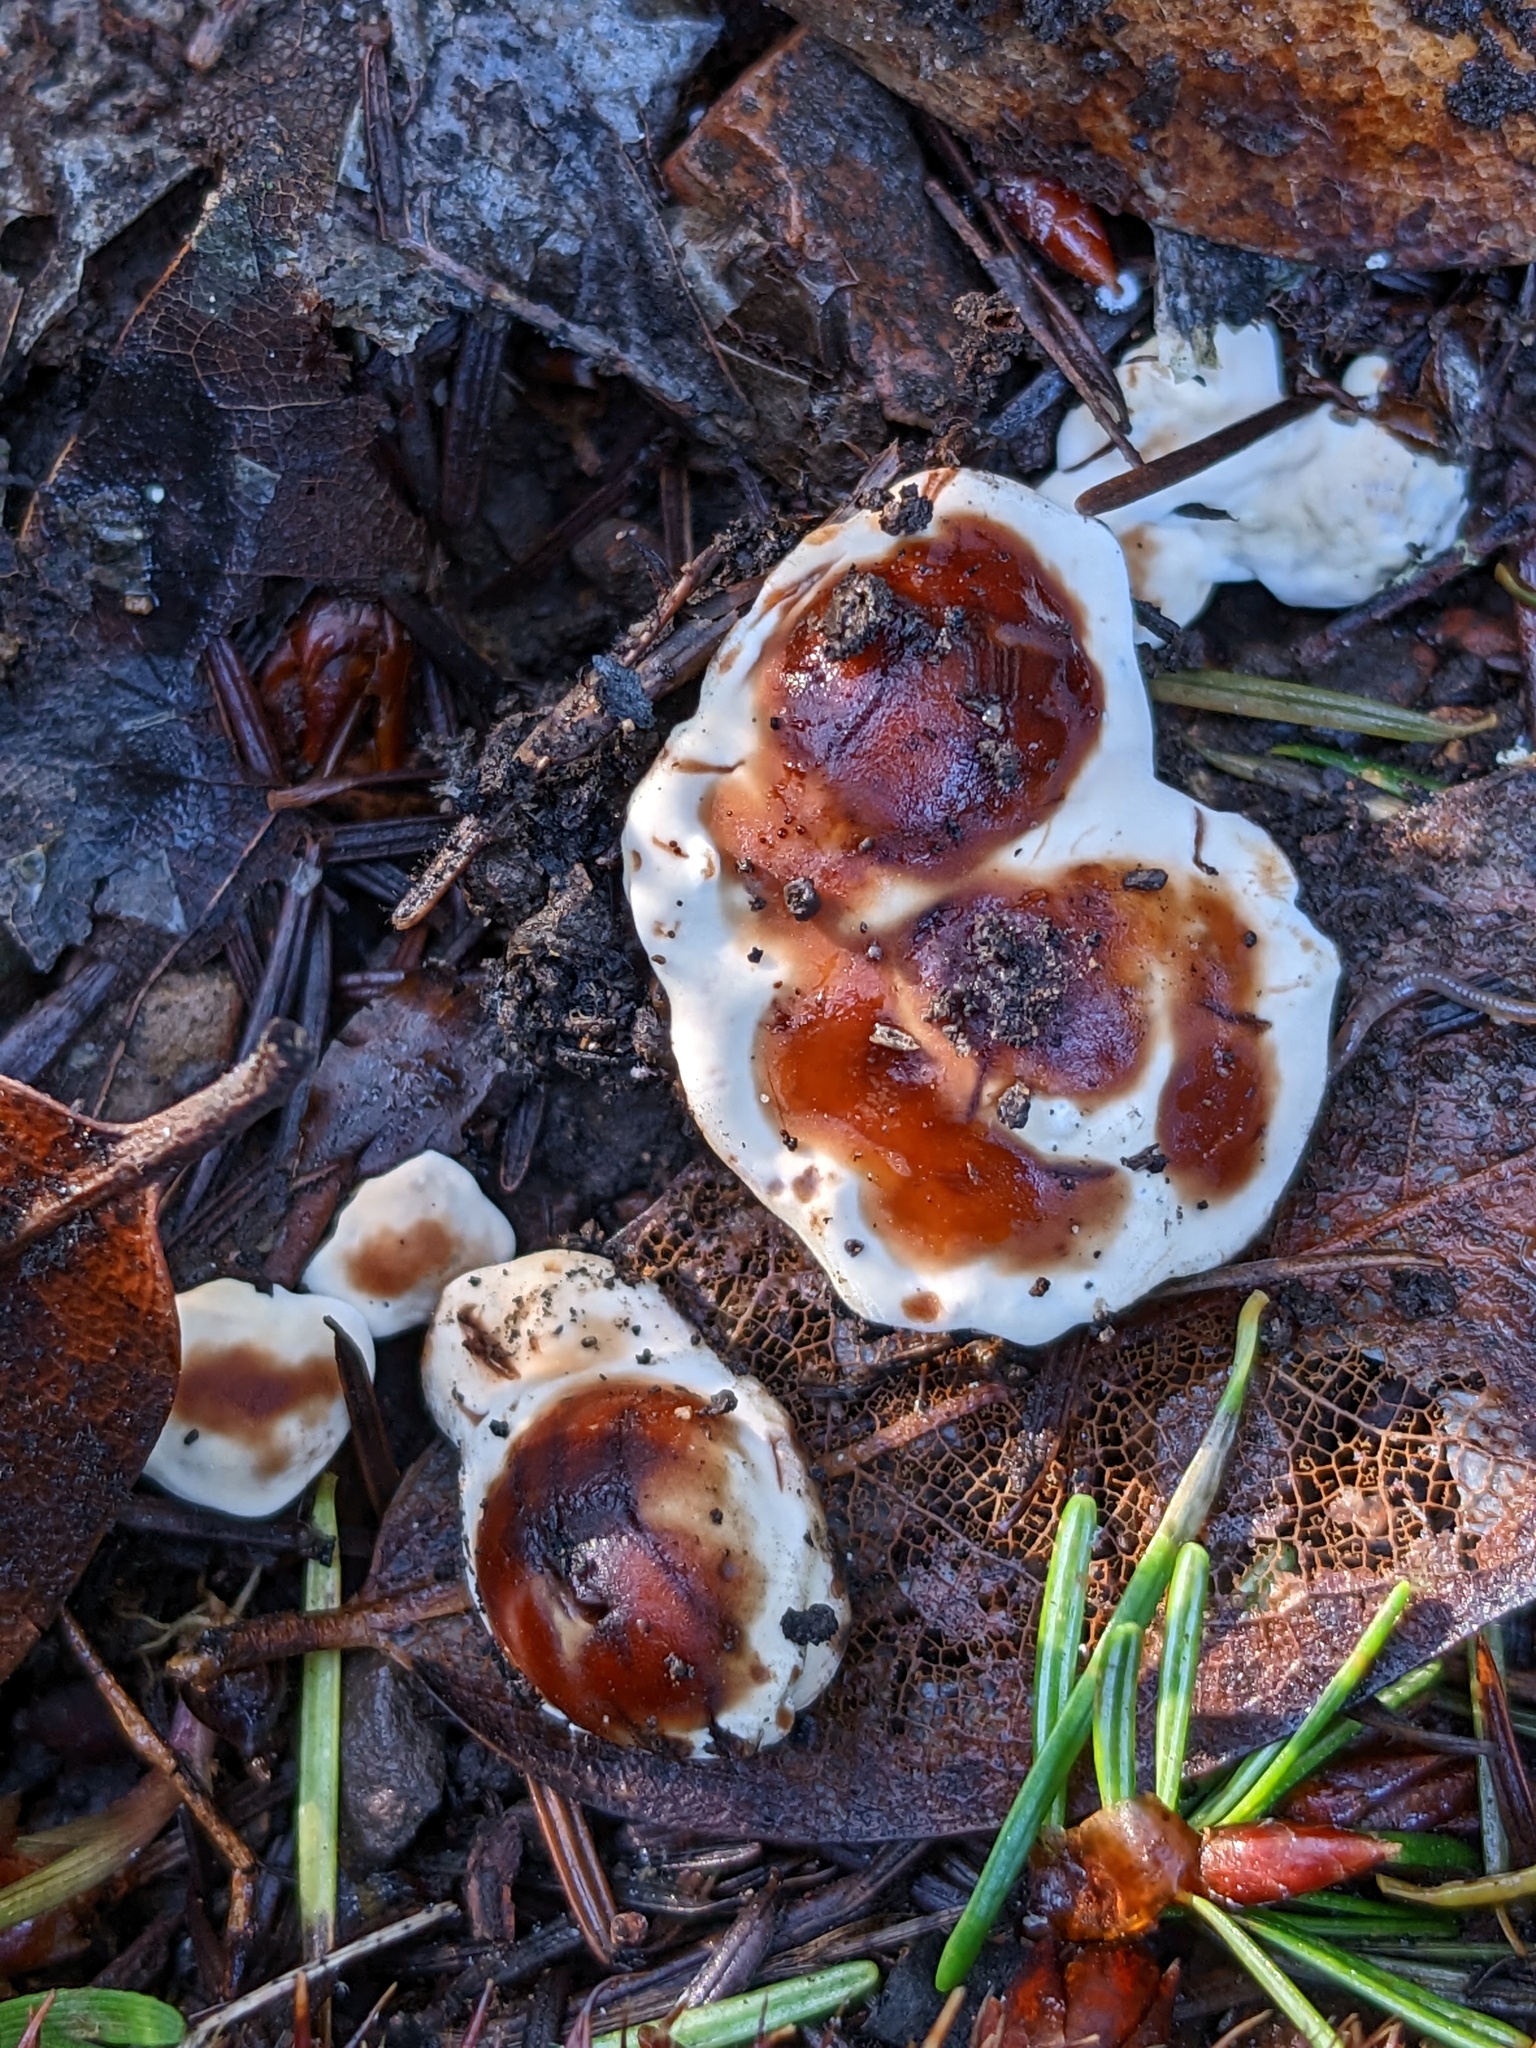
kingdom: Fungi
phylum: Ascomycota
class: Pezizomycetes
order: Pezizales
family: Rhizinaceae
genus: Rhizina
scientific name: Rhizina undulata
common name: Pine firefungus
